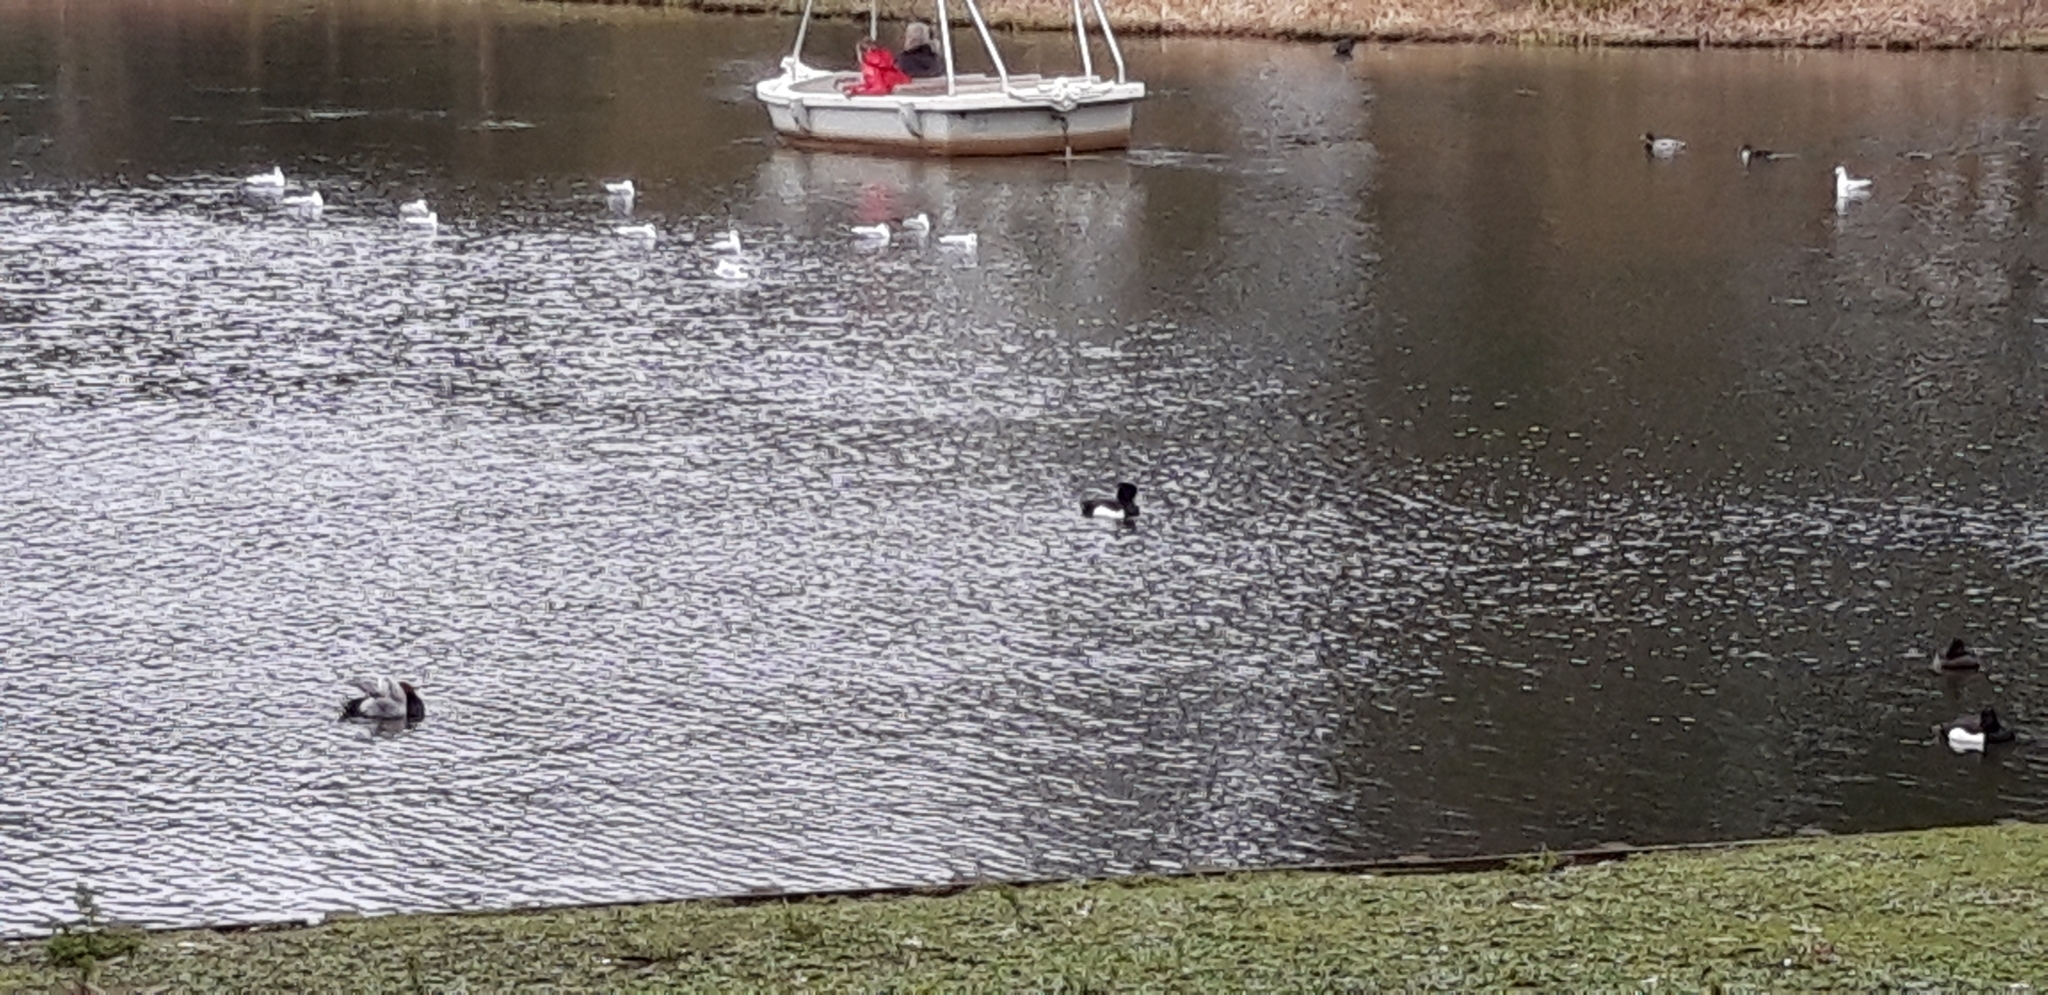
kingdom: Animalia
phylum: Chordata
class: Aves
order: Anseriformes
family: Anatidae
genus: Aythya
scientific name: Aythya ferina
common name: Common pochard
